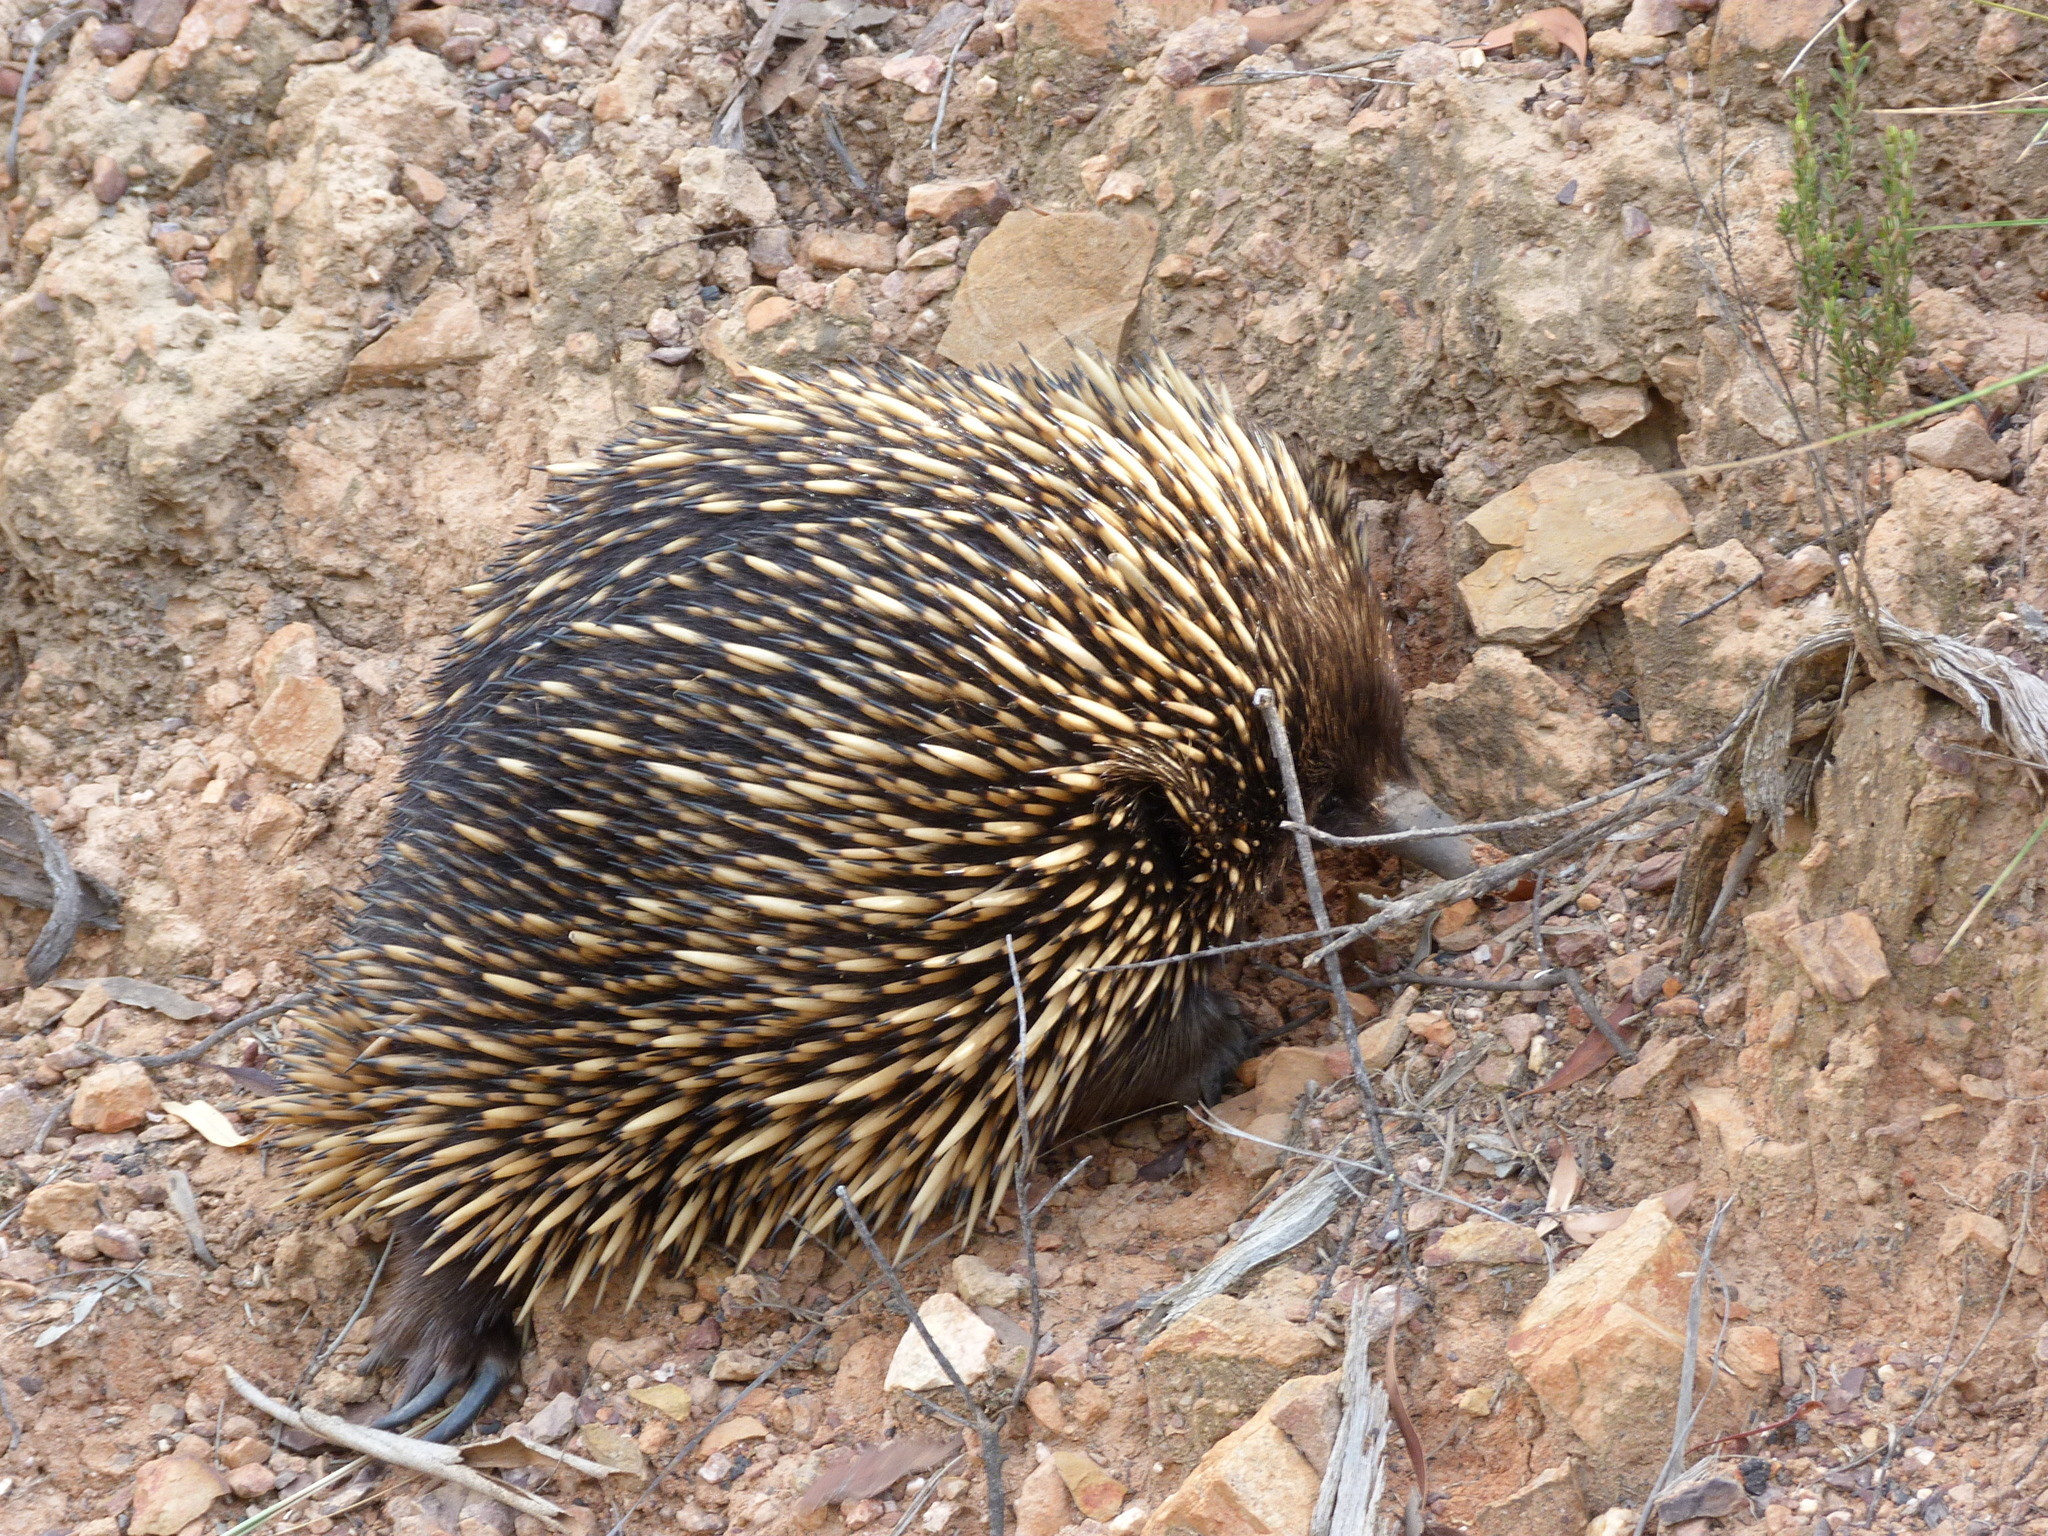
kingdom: Animalia
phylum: Chordata
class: Mammalia
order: Monotremata
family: Tachyglossidae
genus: Tachyglossus
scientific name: Tachyglossus aculeatus
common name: Short-beaked echidna
